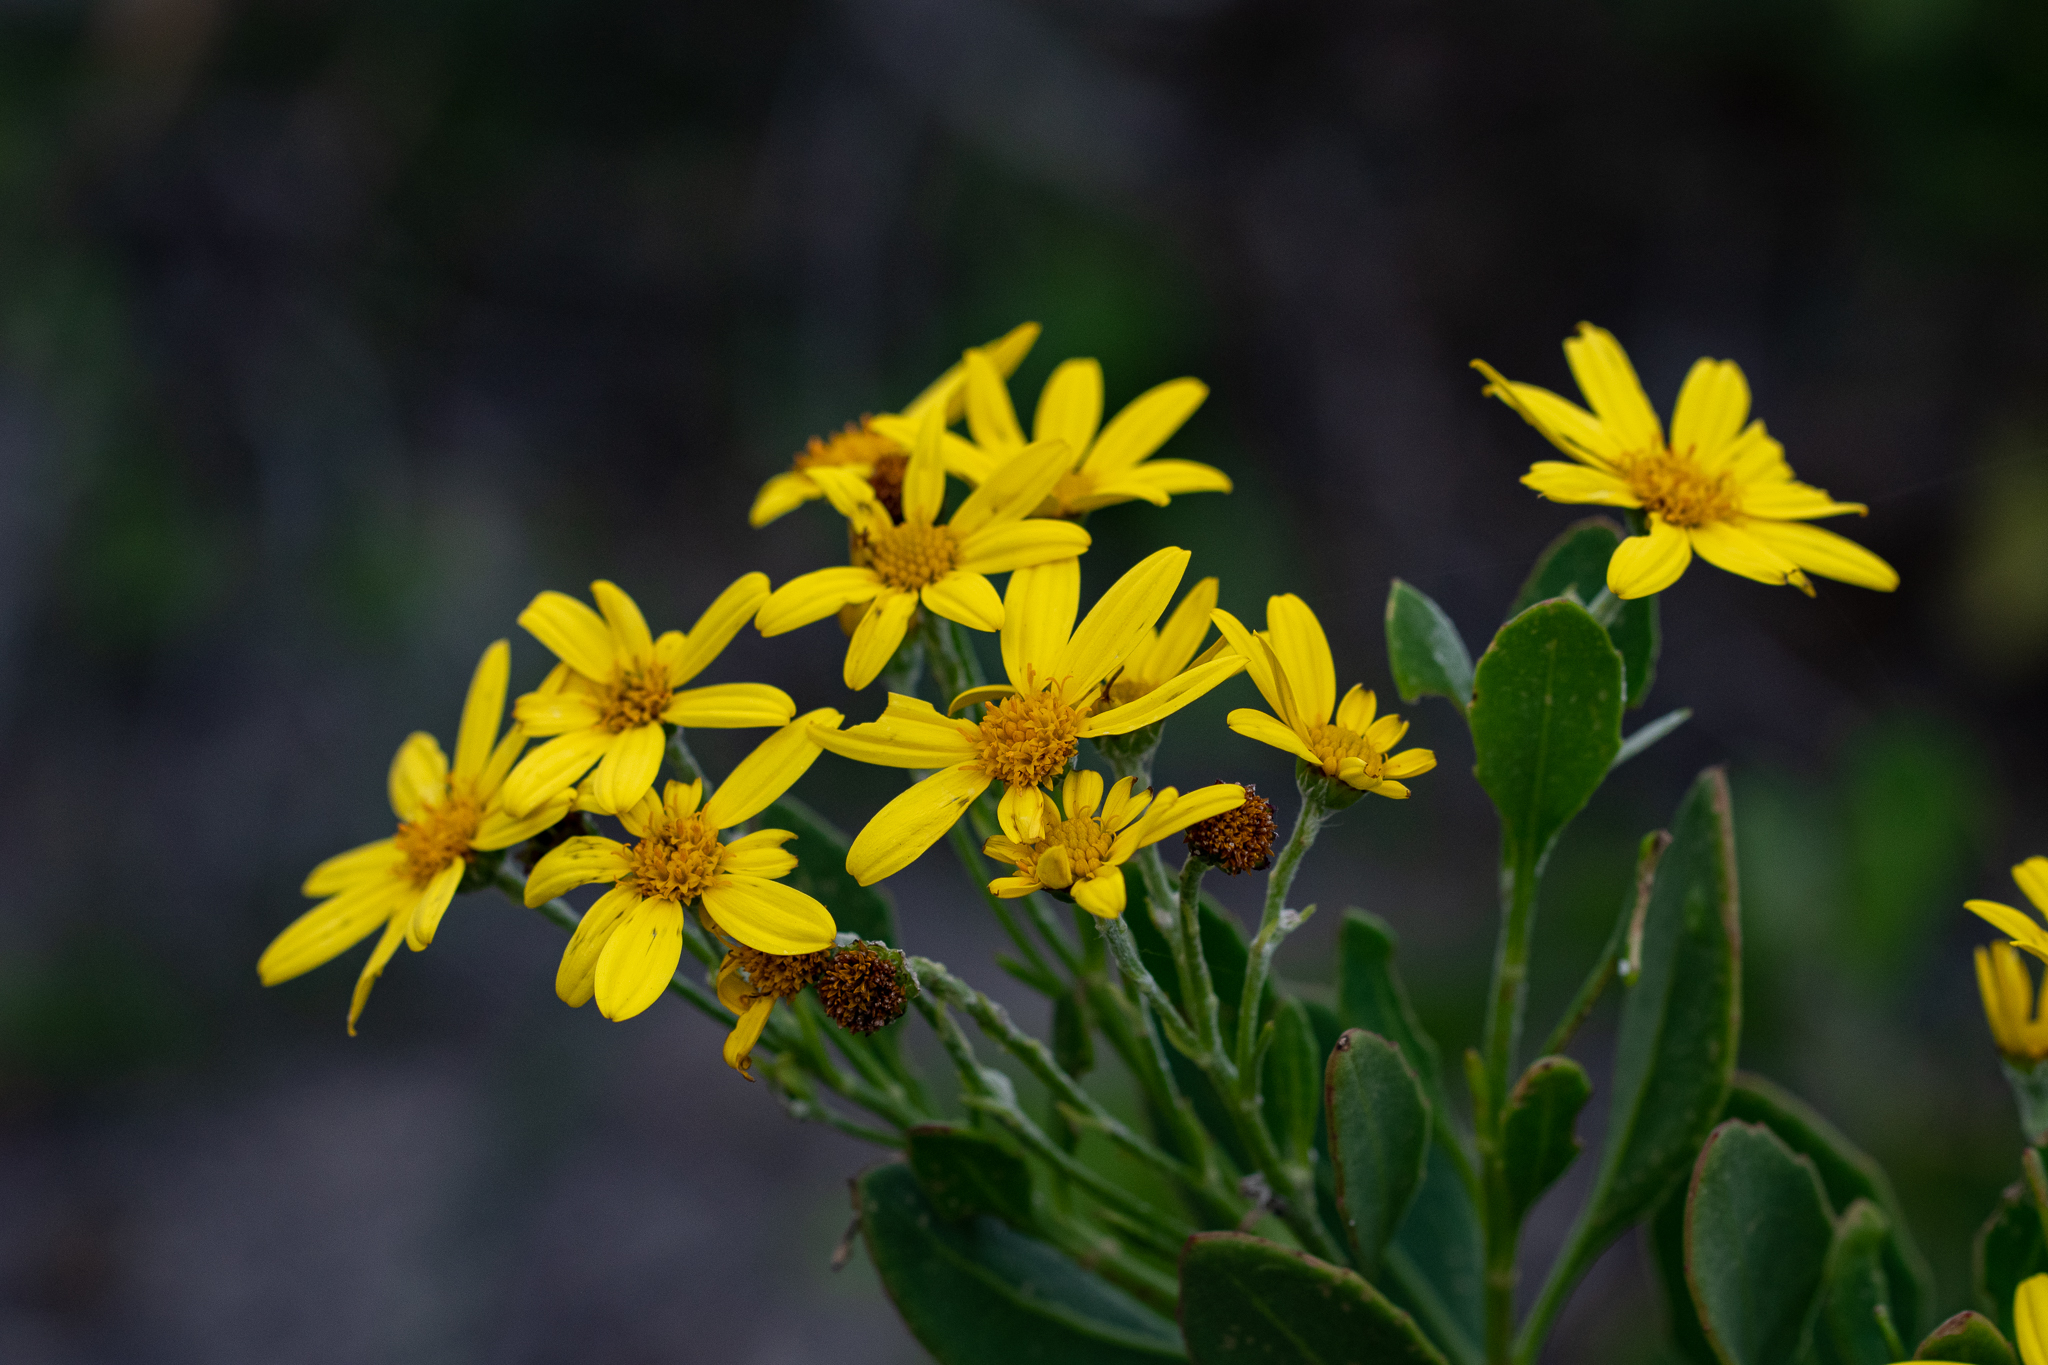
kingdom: Plantae
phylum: Tracheophyta
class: Magnoliopsida
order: Asterales
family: Asteraceae
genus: Osteospermum
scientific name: Osteospermum moniliferum
